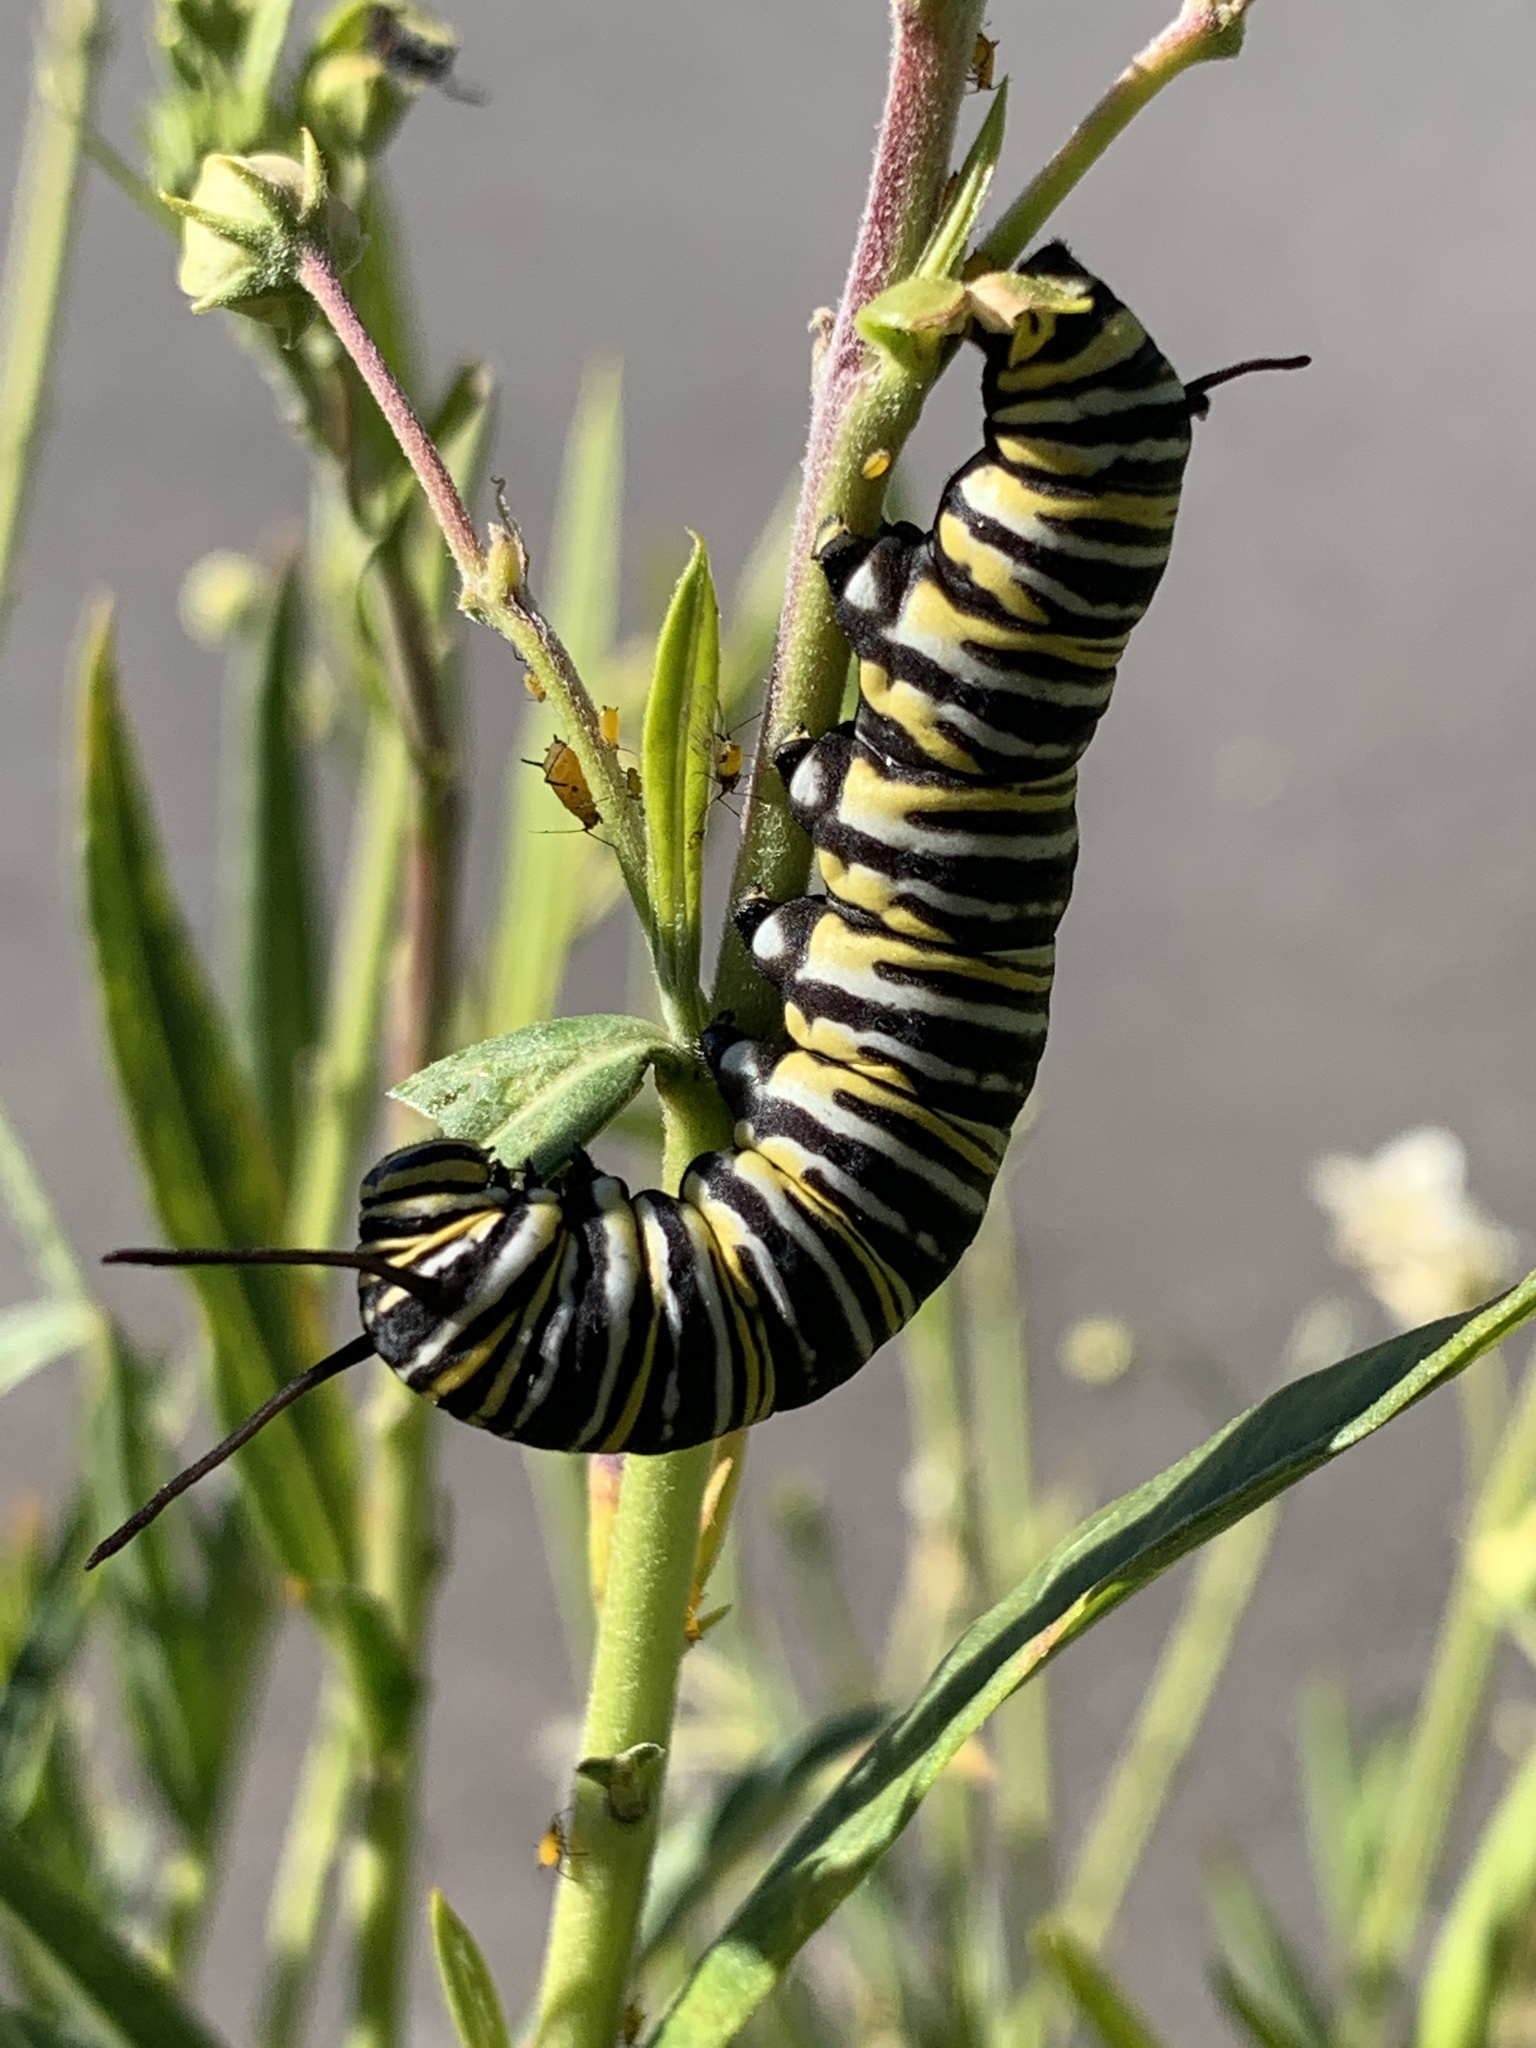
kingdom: Animalia
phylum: Arthropoda
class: Insecta
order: Lepidoptera
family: Nymphalidae
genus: Danaus
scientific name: Danaus plexippus
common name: Monarch
